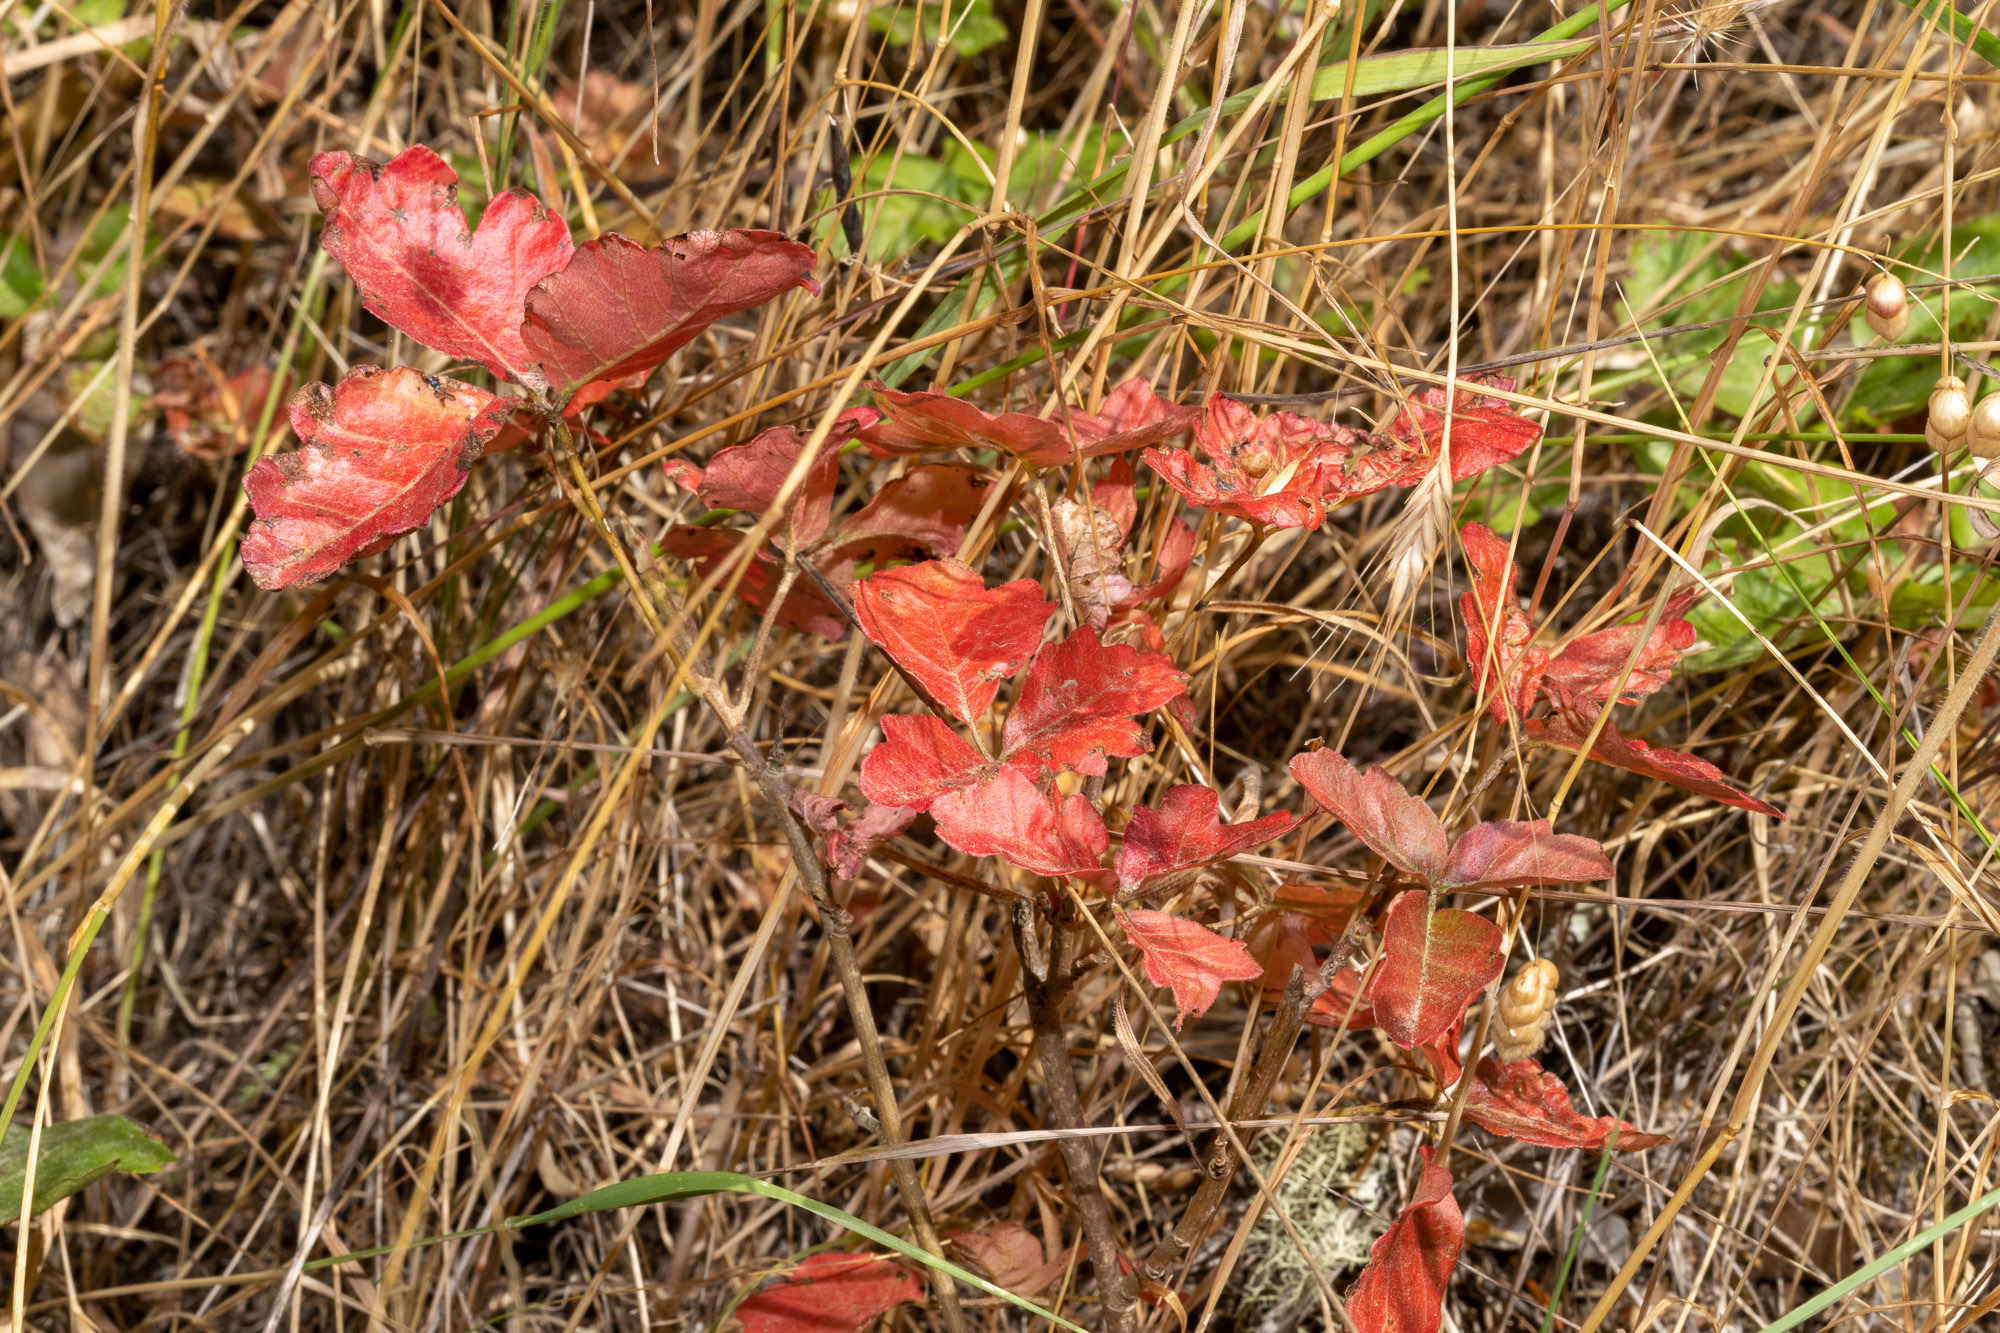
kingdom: Plantae
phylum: Tracheophyta
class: Magnoliopsida
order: Sapindales
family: Anacardiaceae
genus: Toxicodendron
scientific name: Toxicodendron diversilobum
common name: Pacific poison-oak
